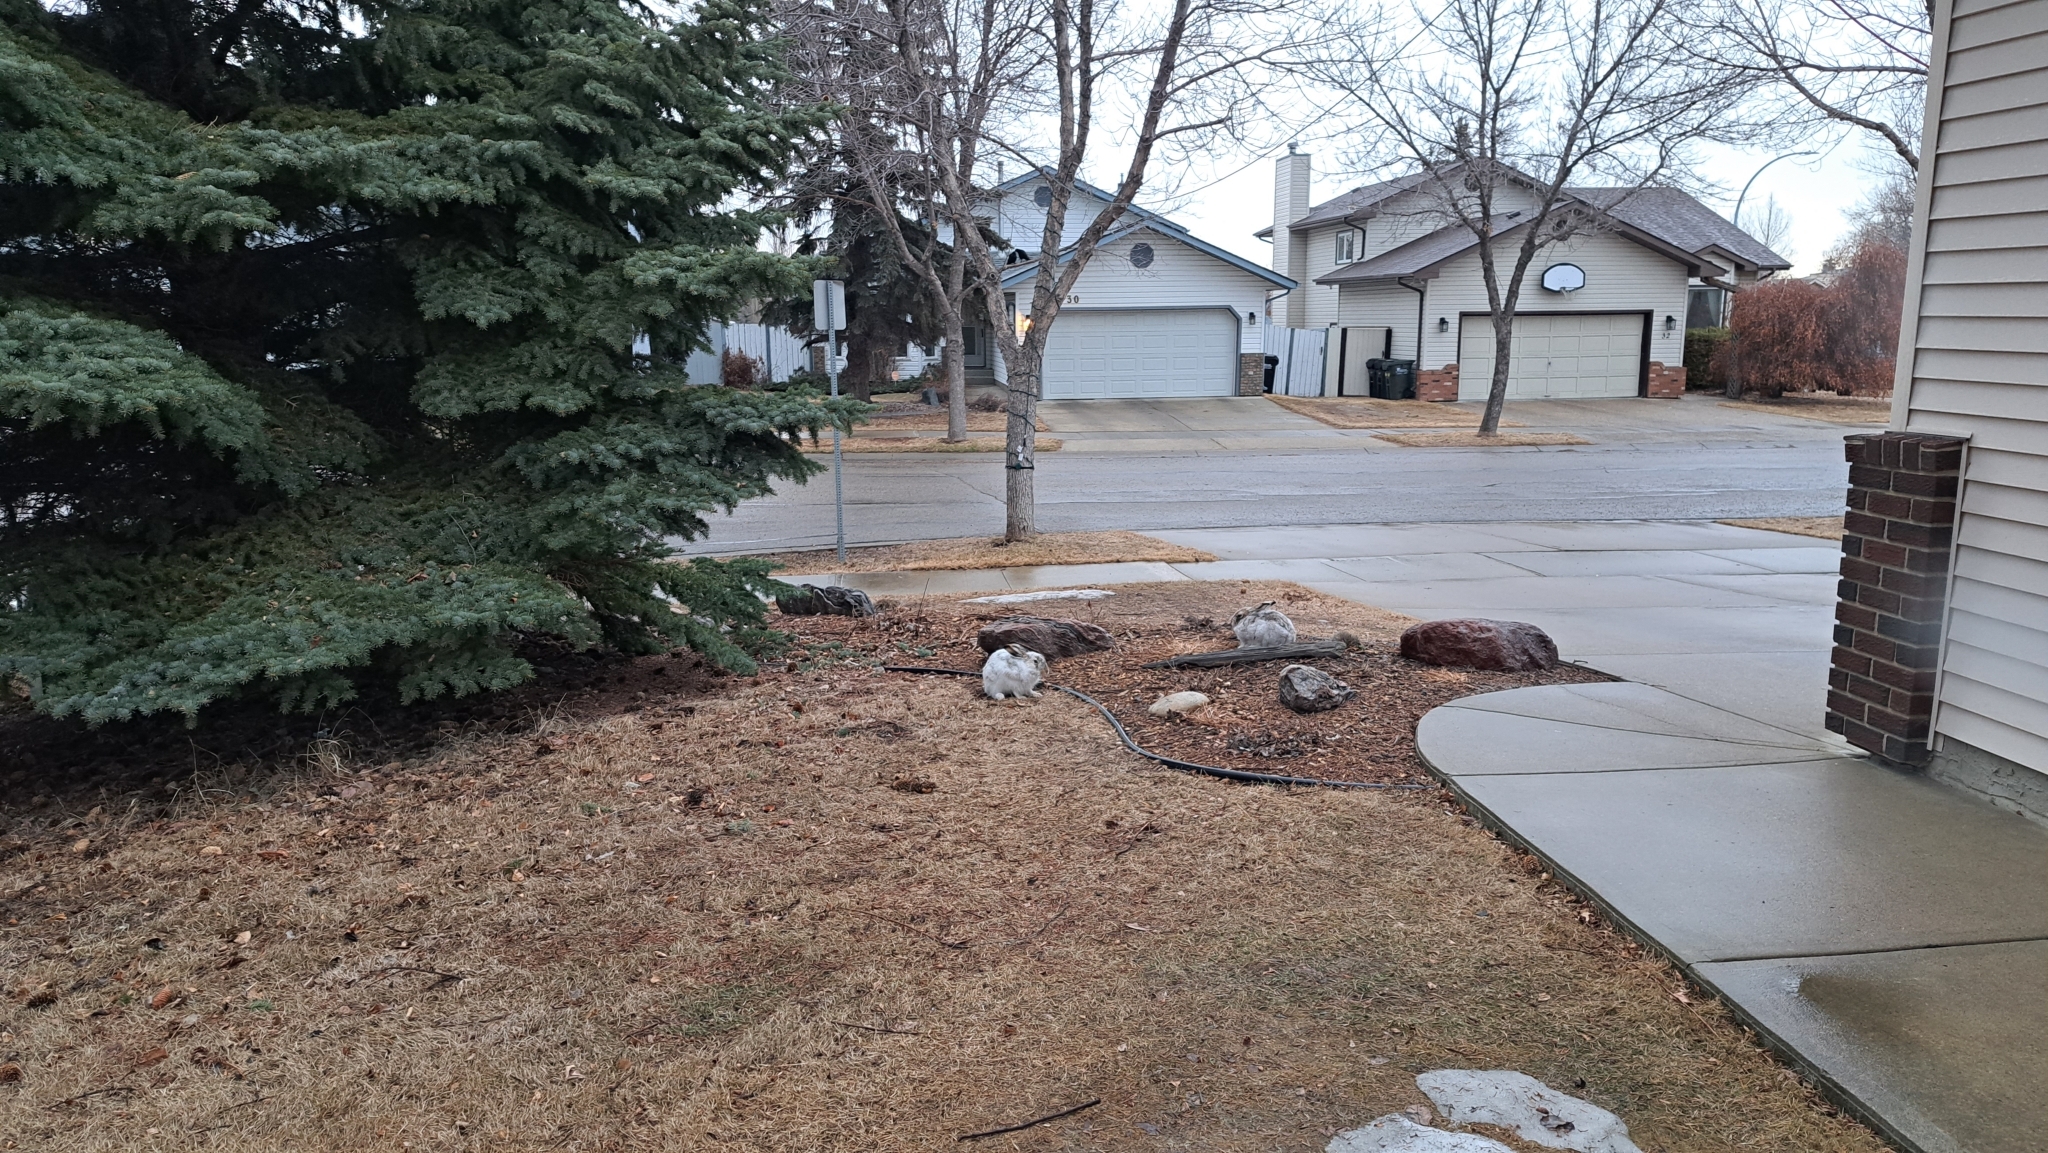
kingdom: Animalia
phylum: Chordata
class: Mammalia
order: Lagomorpha
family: Leporidae
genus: Lepus
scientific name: Lepus townsendii
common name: White-tailed jackrabbit
